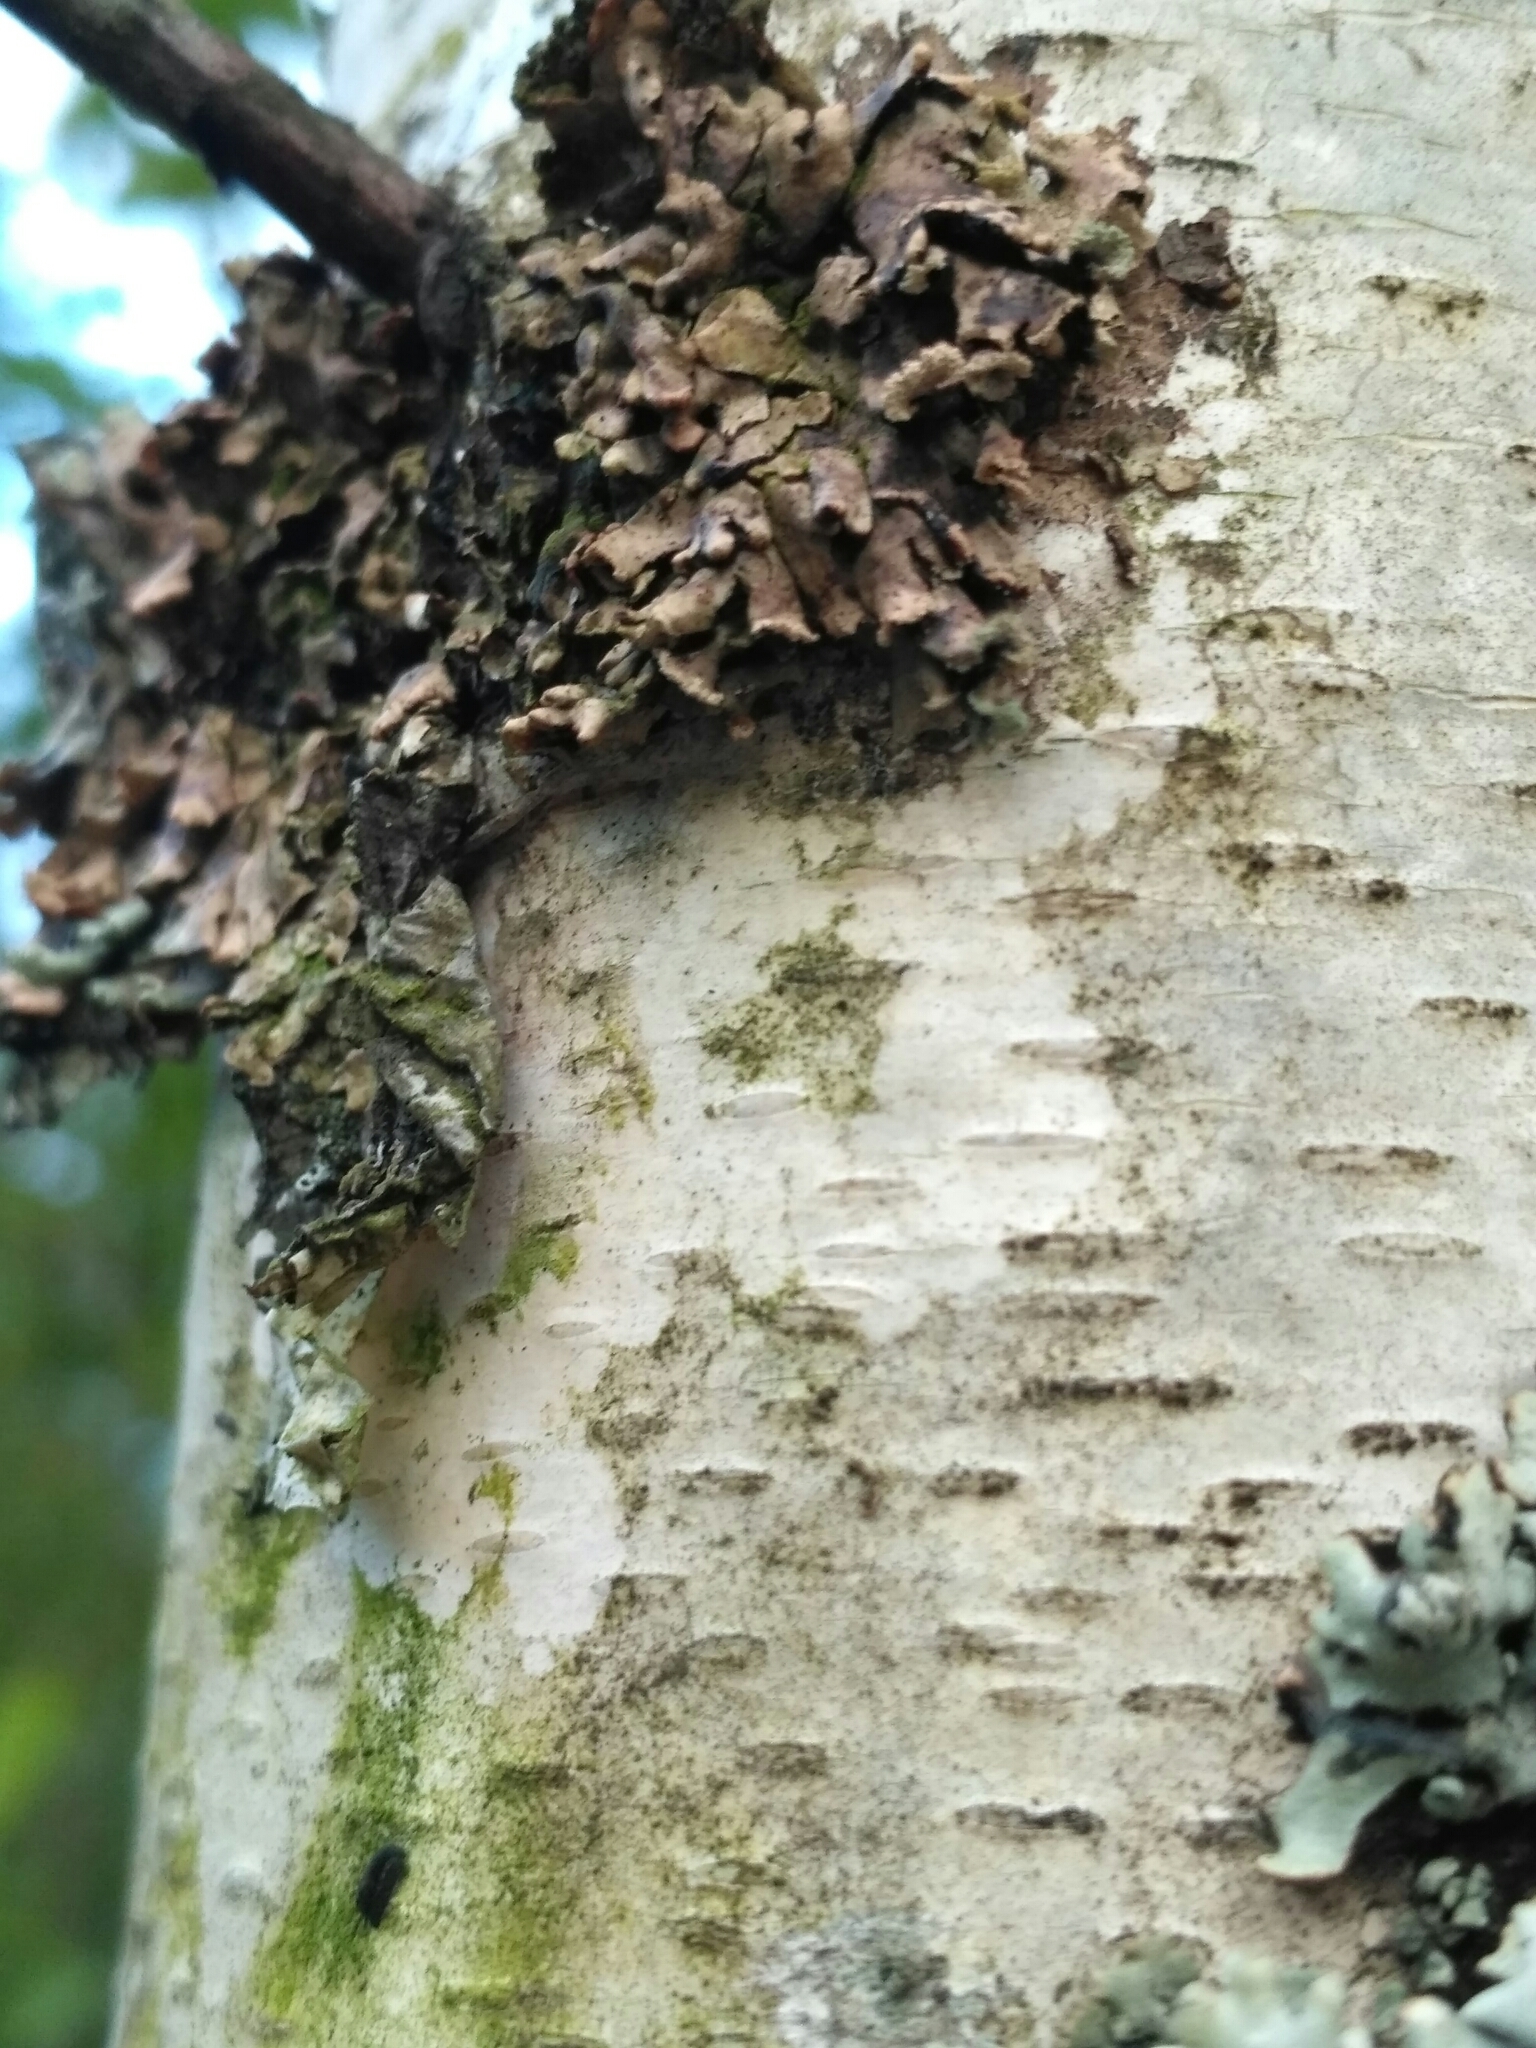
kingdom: Fungi
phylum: Ascomycota
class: Lecanoromycetes
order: Lecanorales
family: Parmeliaceae
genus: Hypogymnia
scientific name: Hypogymnia physodes
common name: Dark crottle
